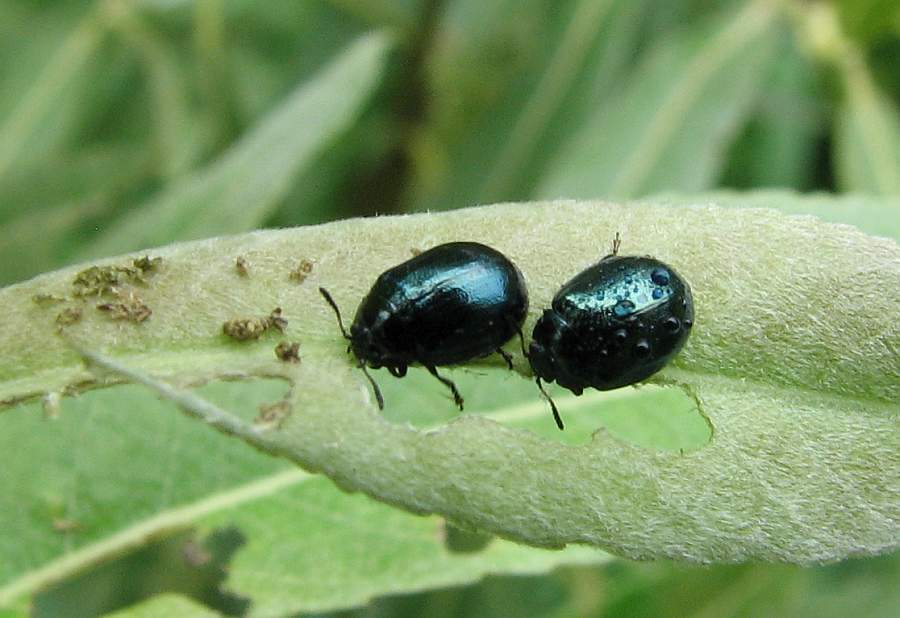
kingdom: Animalia
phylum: Arthropoda
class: Insecta
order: Coleoptera
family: Chrysomelidae
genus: Plagiodera
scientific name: Plagiodera versicolora
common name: Imported willow leaf beetle
